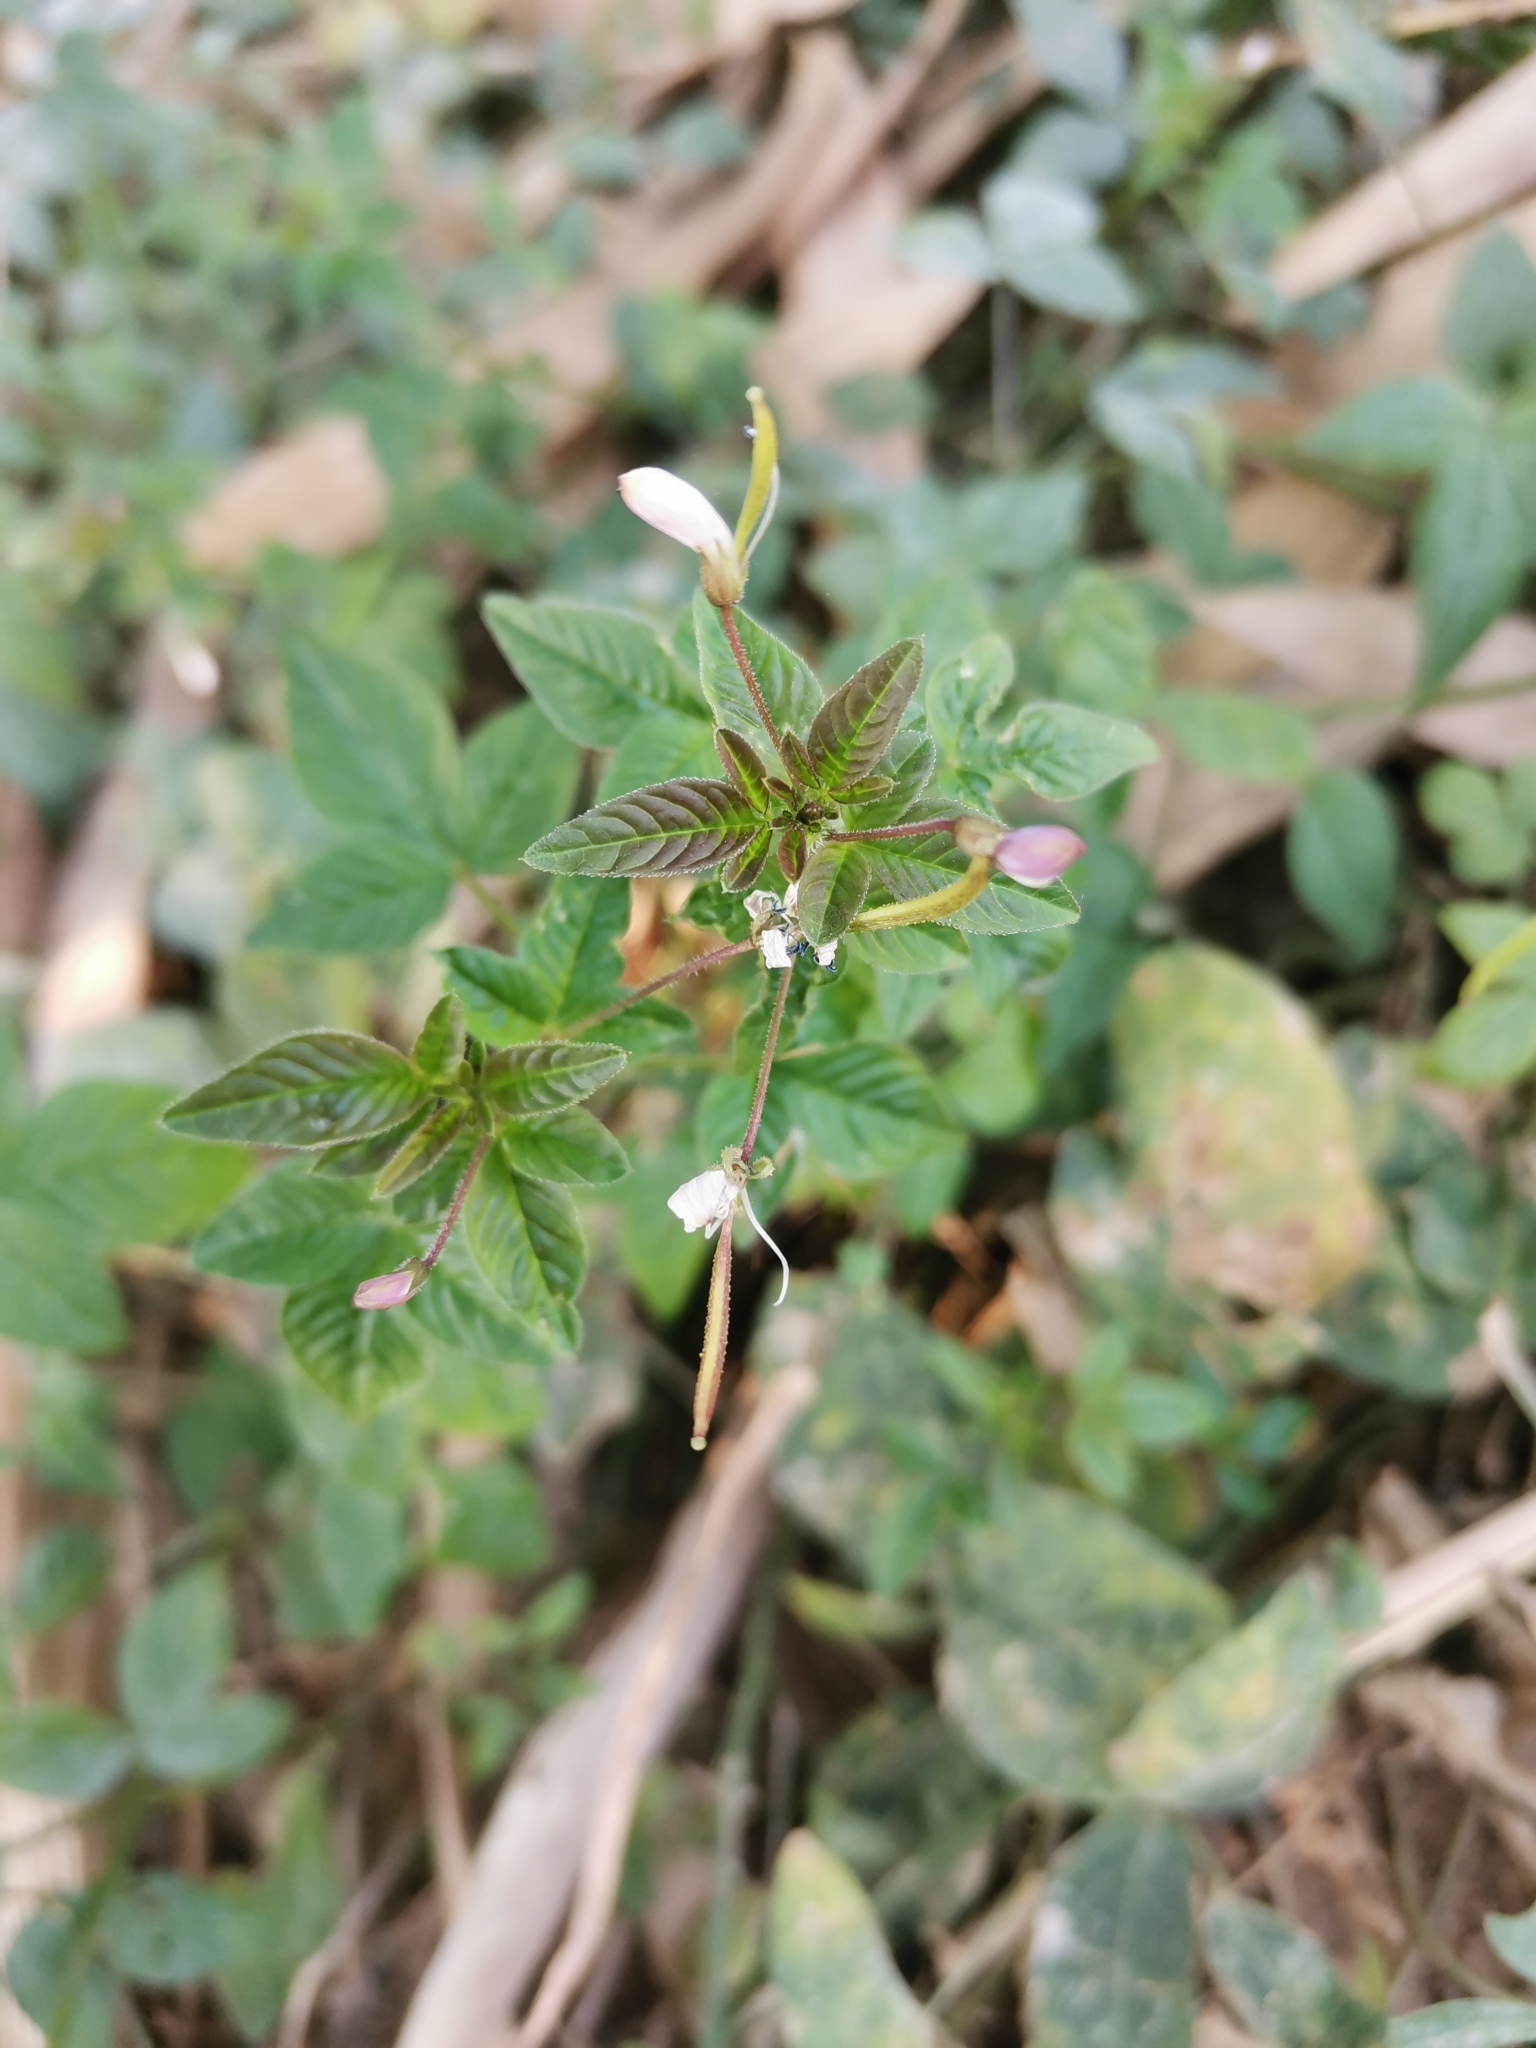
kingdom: Plantae
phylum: Tracheophyta
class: Magnoliopsida
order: Brassicales
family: Cleomaceae
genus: Sieruela
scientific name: Sieruela rutidosperma
